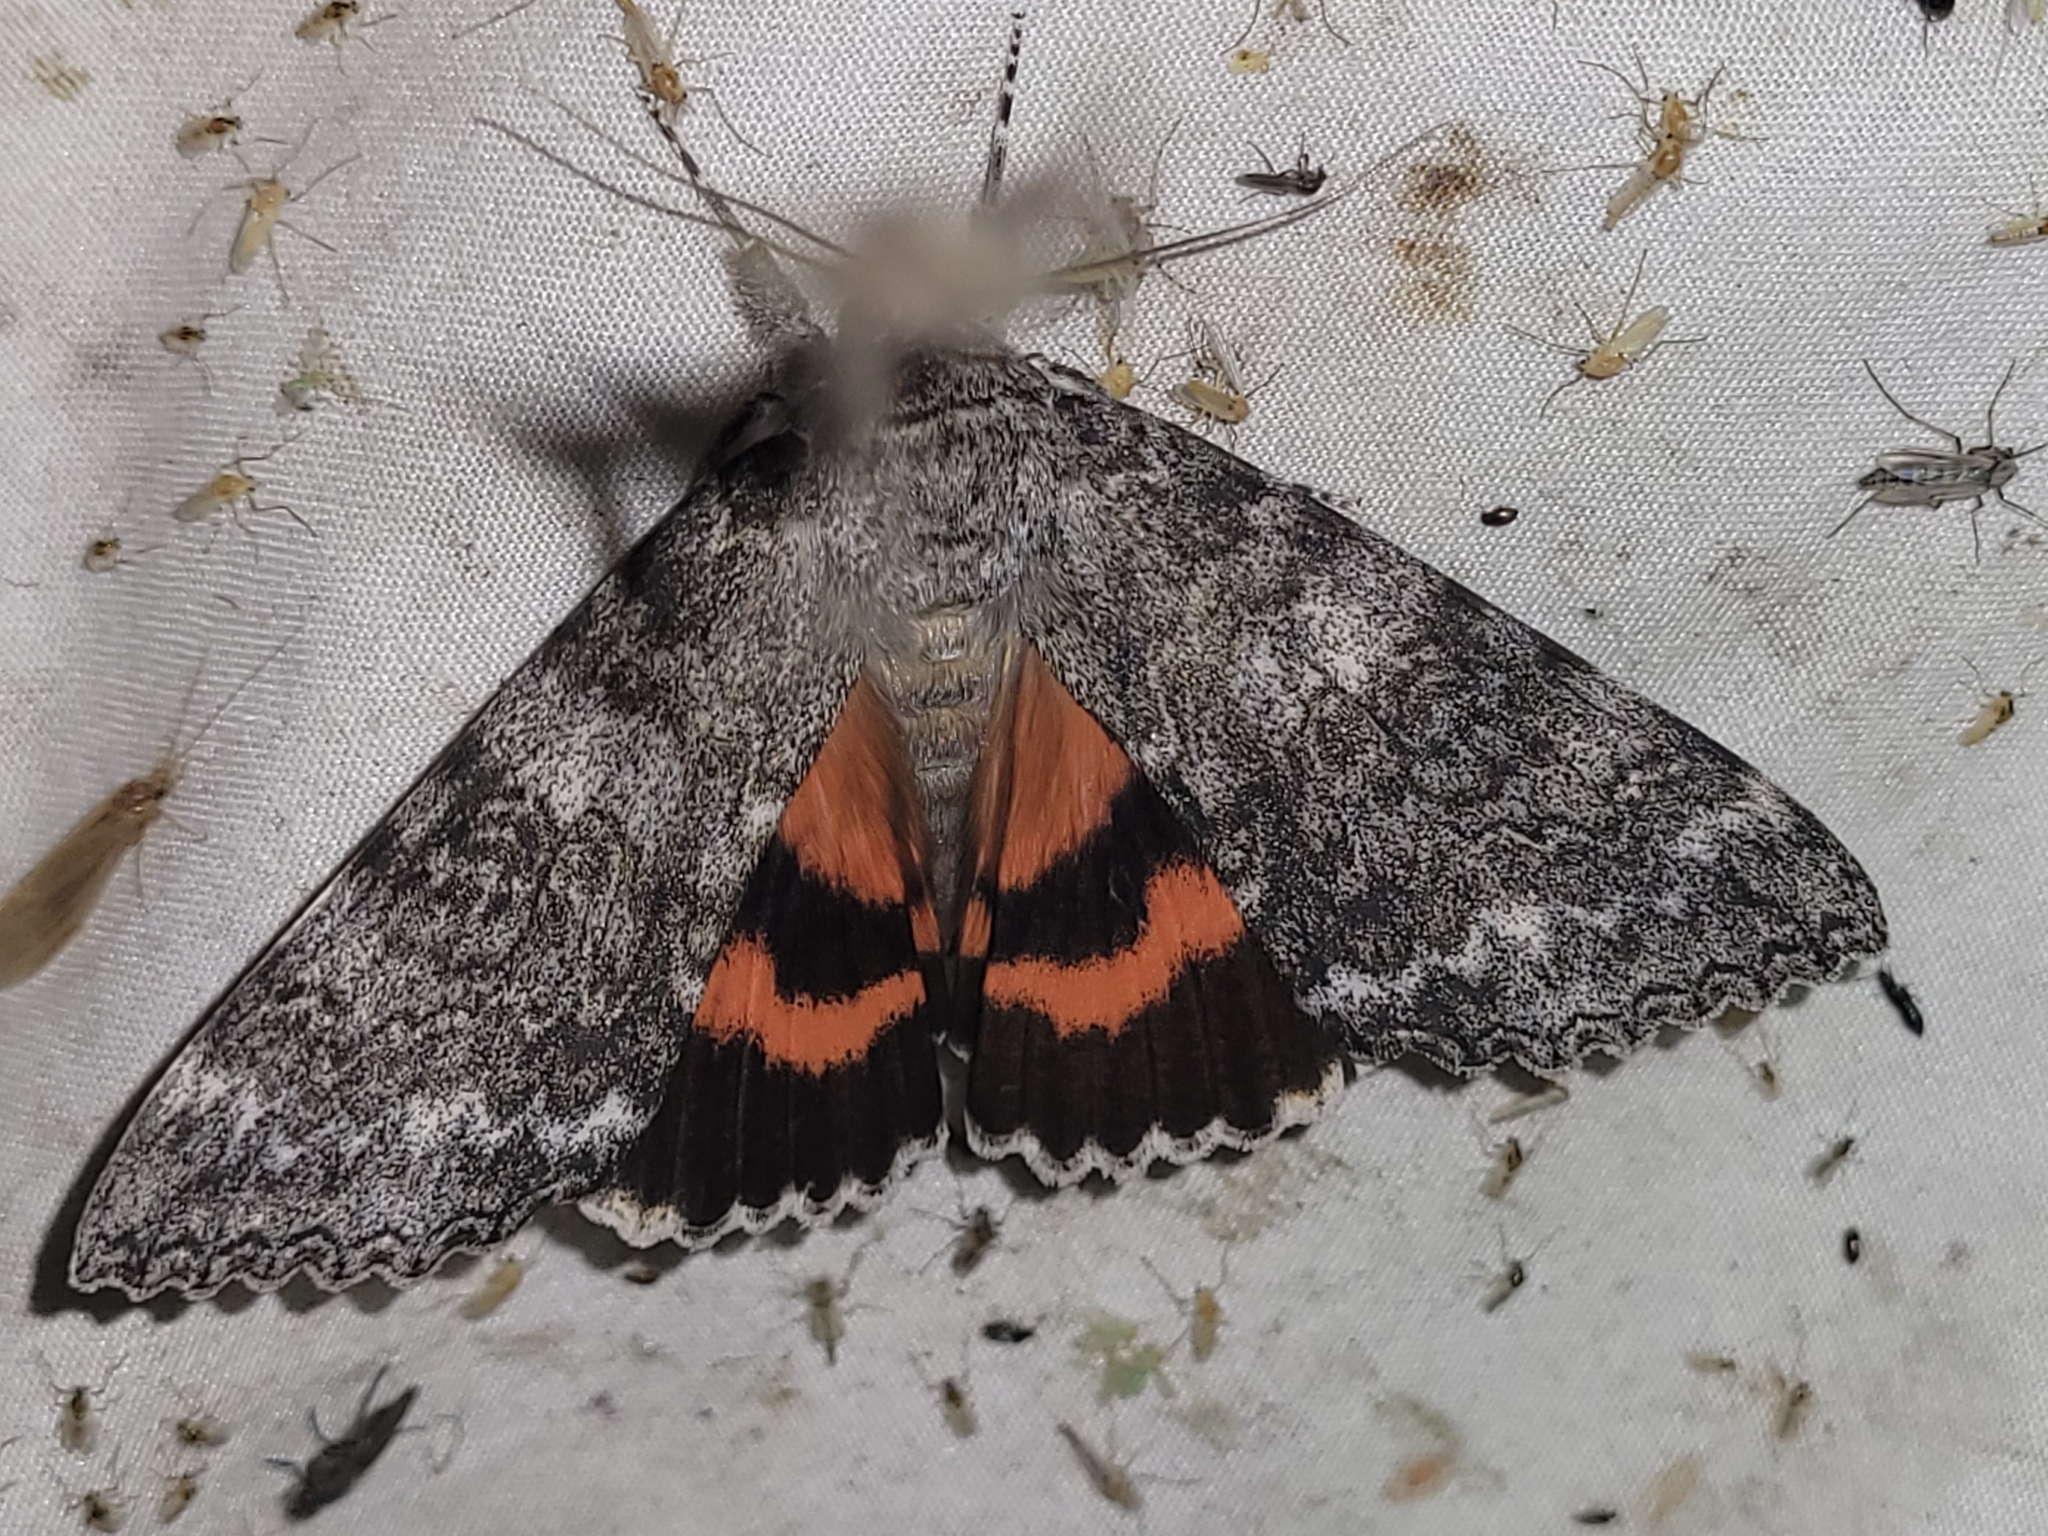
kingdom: Animalia
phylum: Arthropoda
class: Insecta
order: Lepidoptera
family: Erebidae
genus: Catocala
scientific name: Catocala unijuga
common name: Once-married underwing
